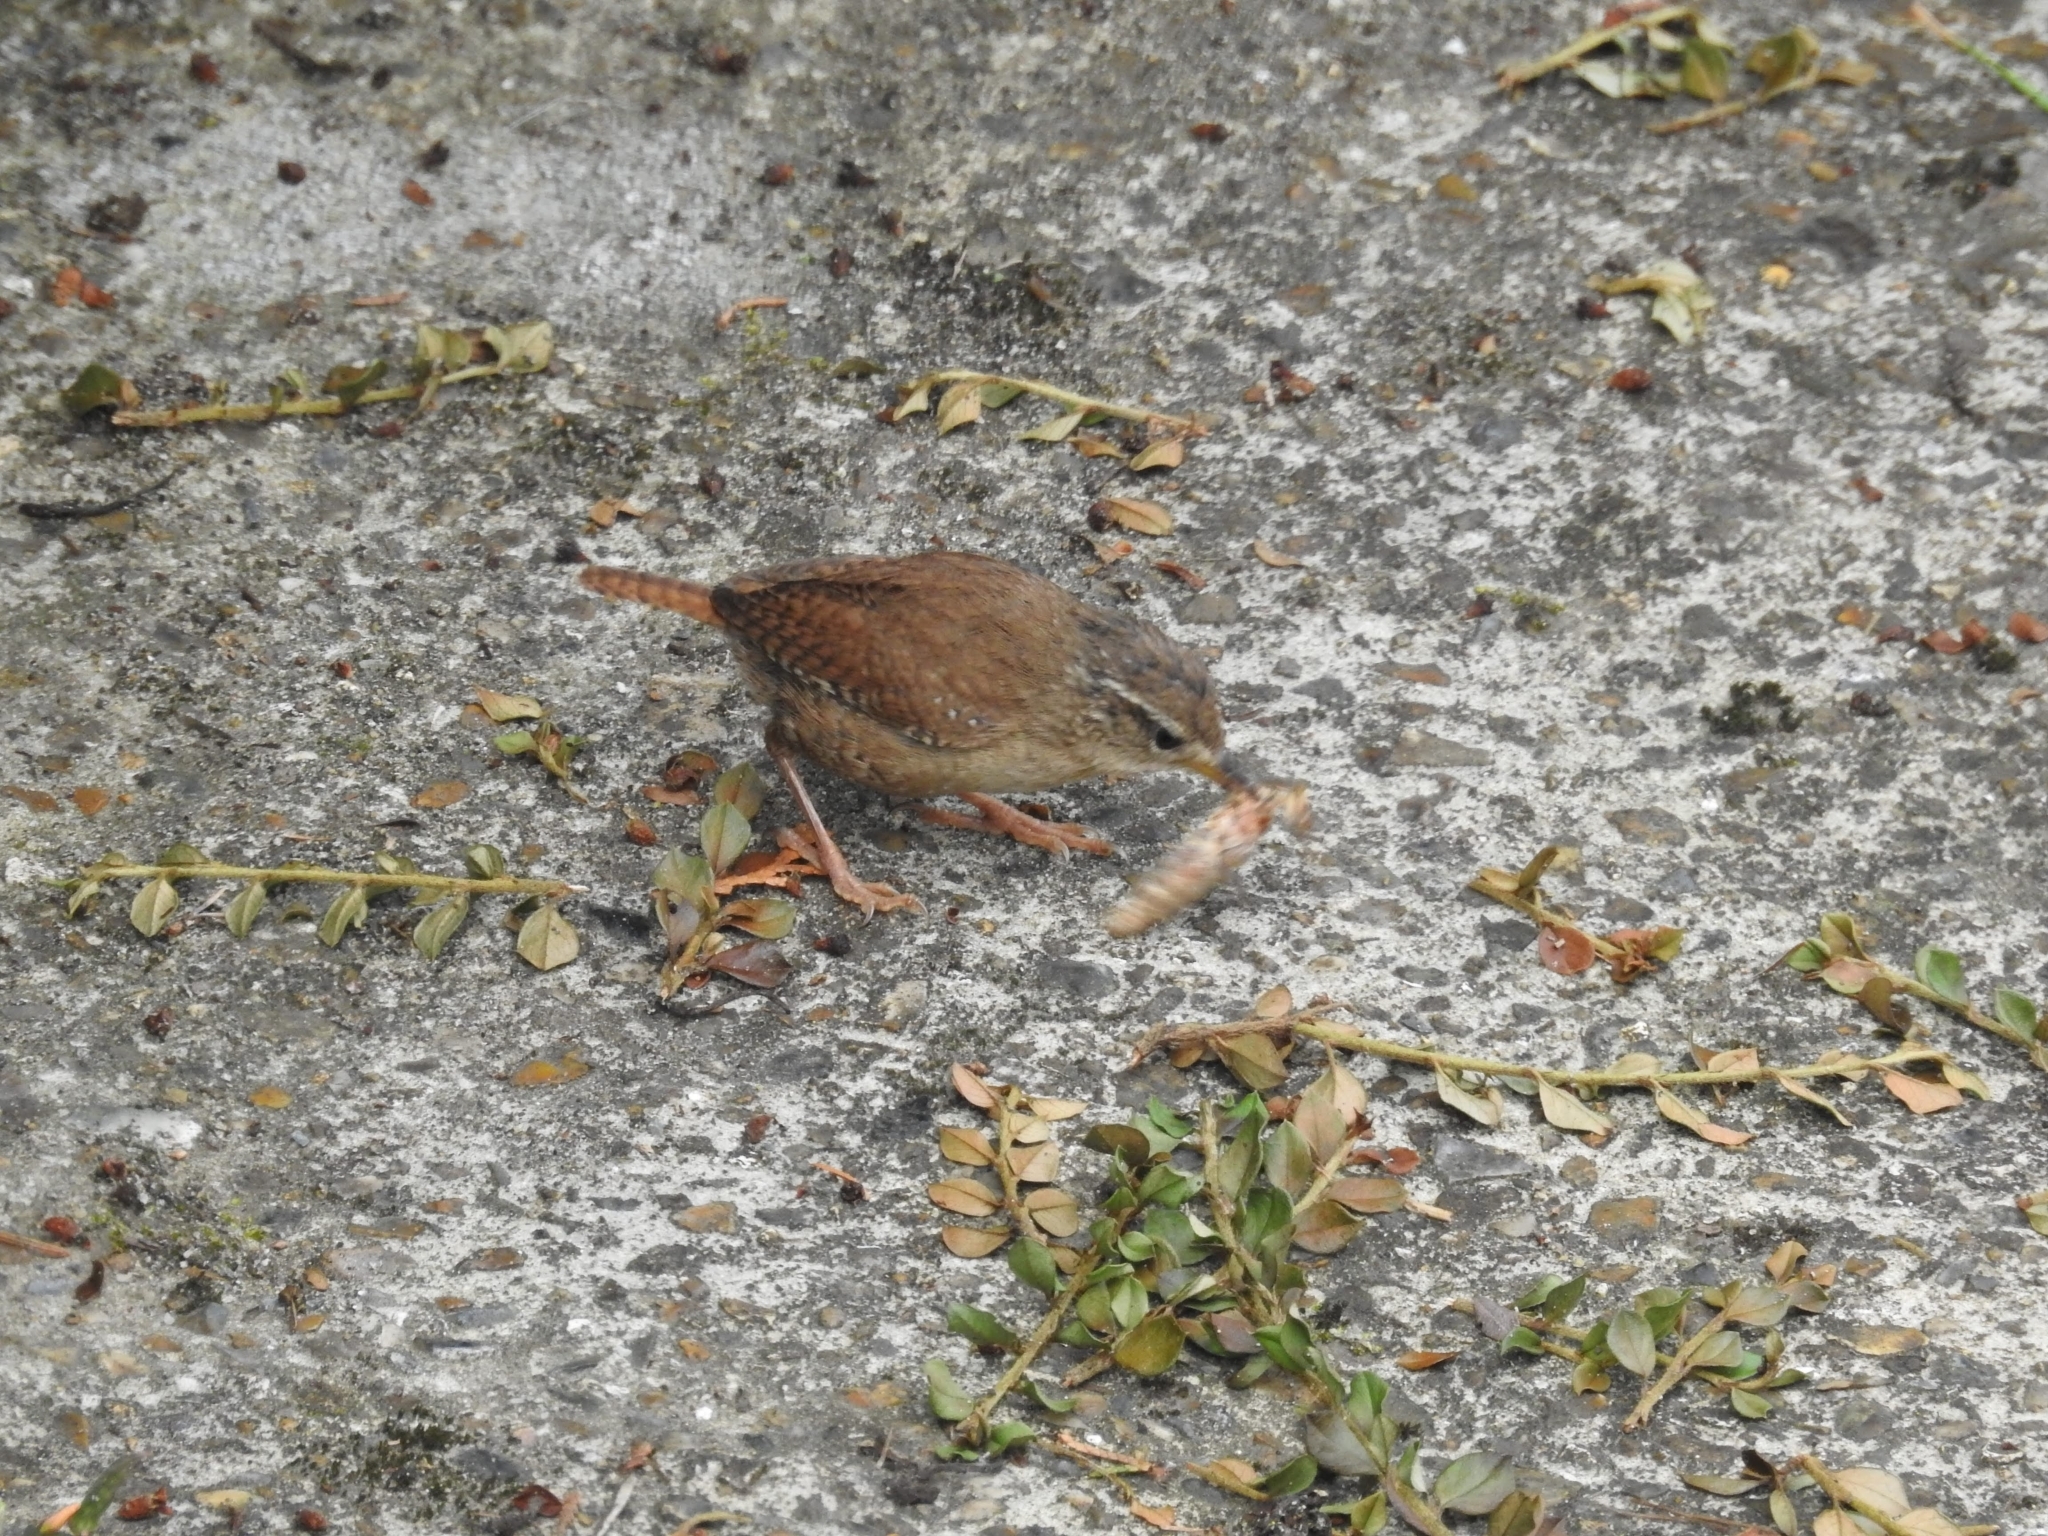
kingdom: Animalia
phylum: Chordata
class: Aves
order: Passeriformes
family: Troglodytidae
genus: Troglodytes
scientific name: Troglodytes troglodytes
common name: Eurasian wren
